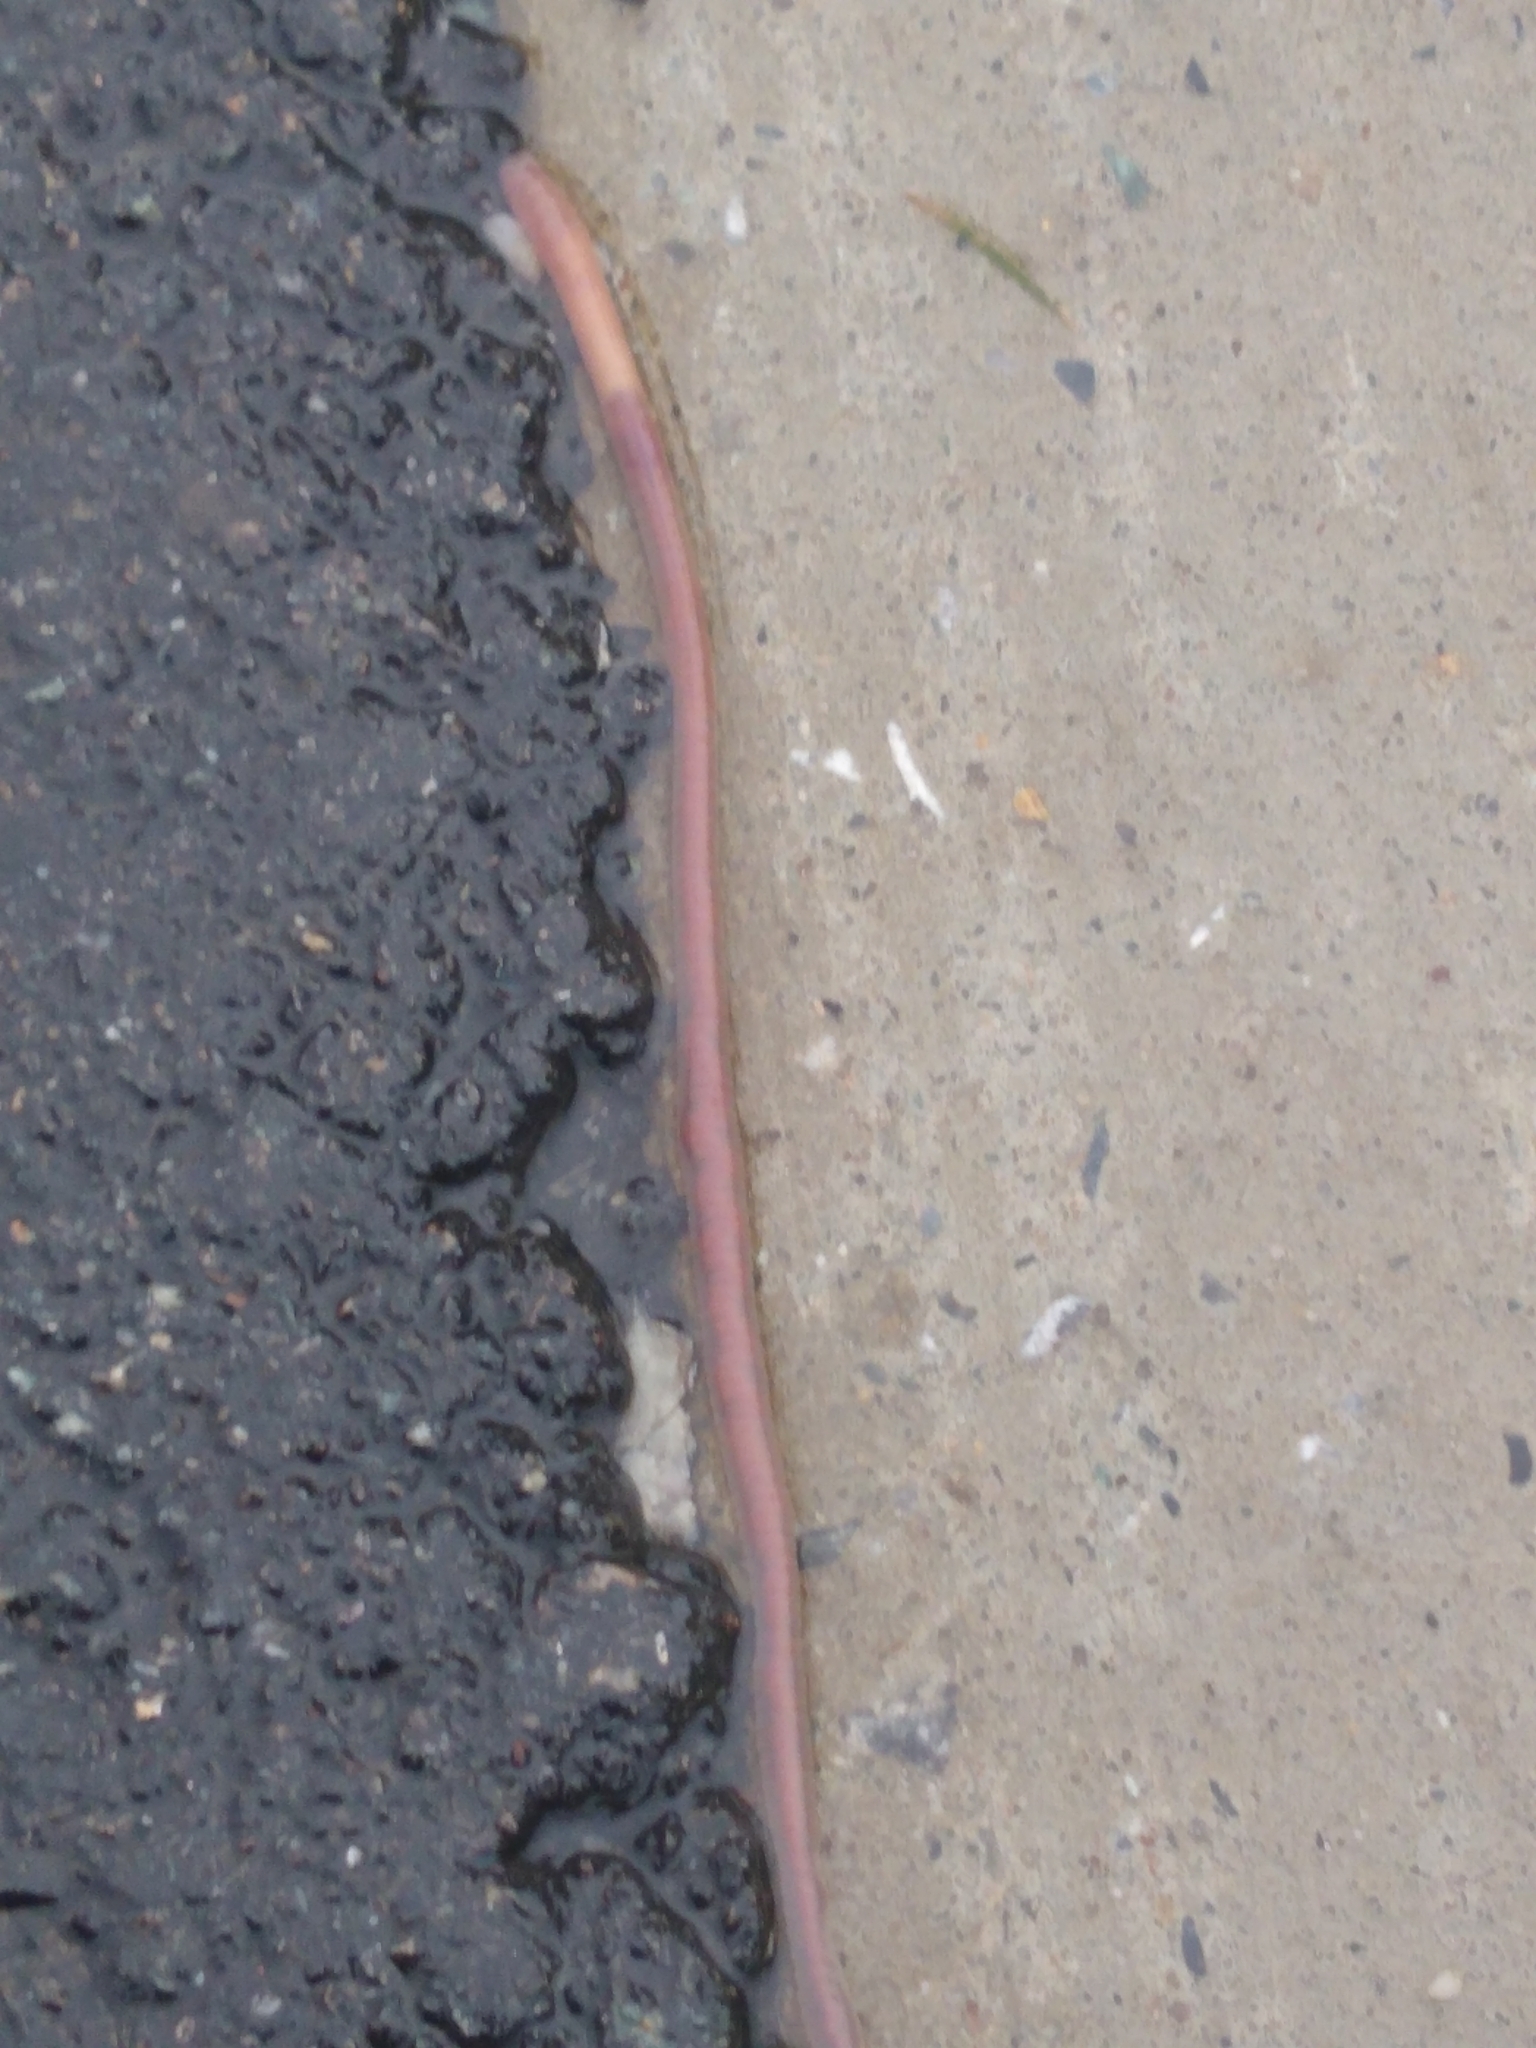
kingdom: Animalia
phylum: Annelida
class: Clitellata
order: Crassiclitellata
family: Lumbricidae
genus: Lumbricus
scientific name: Lumbricus terrestris
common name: Common earthworm
